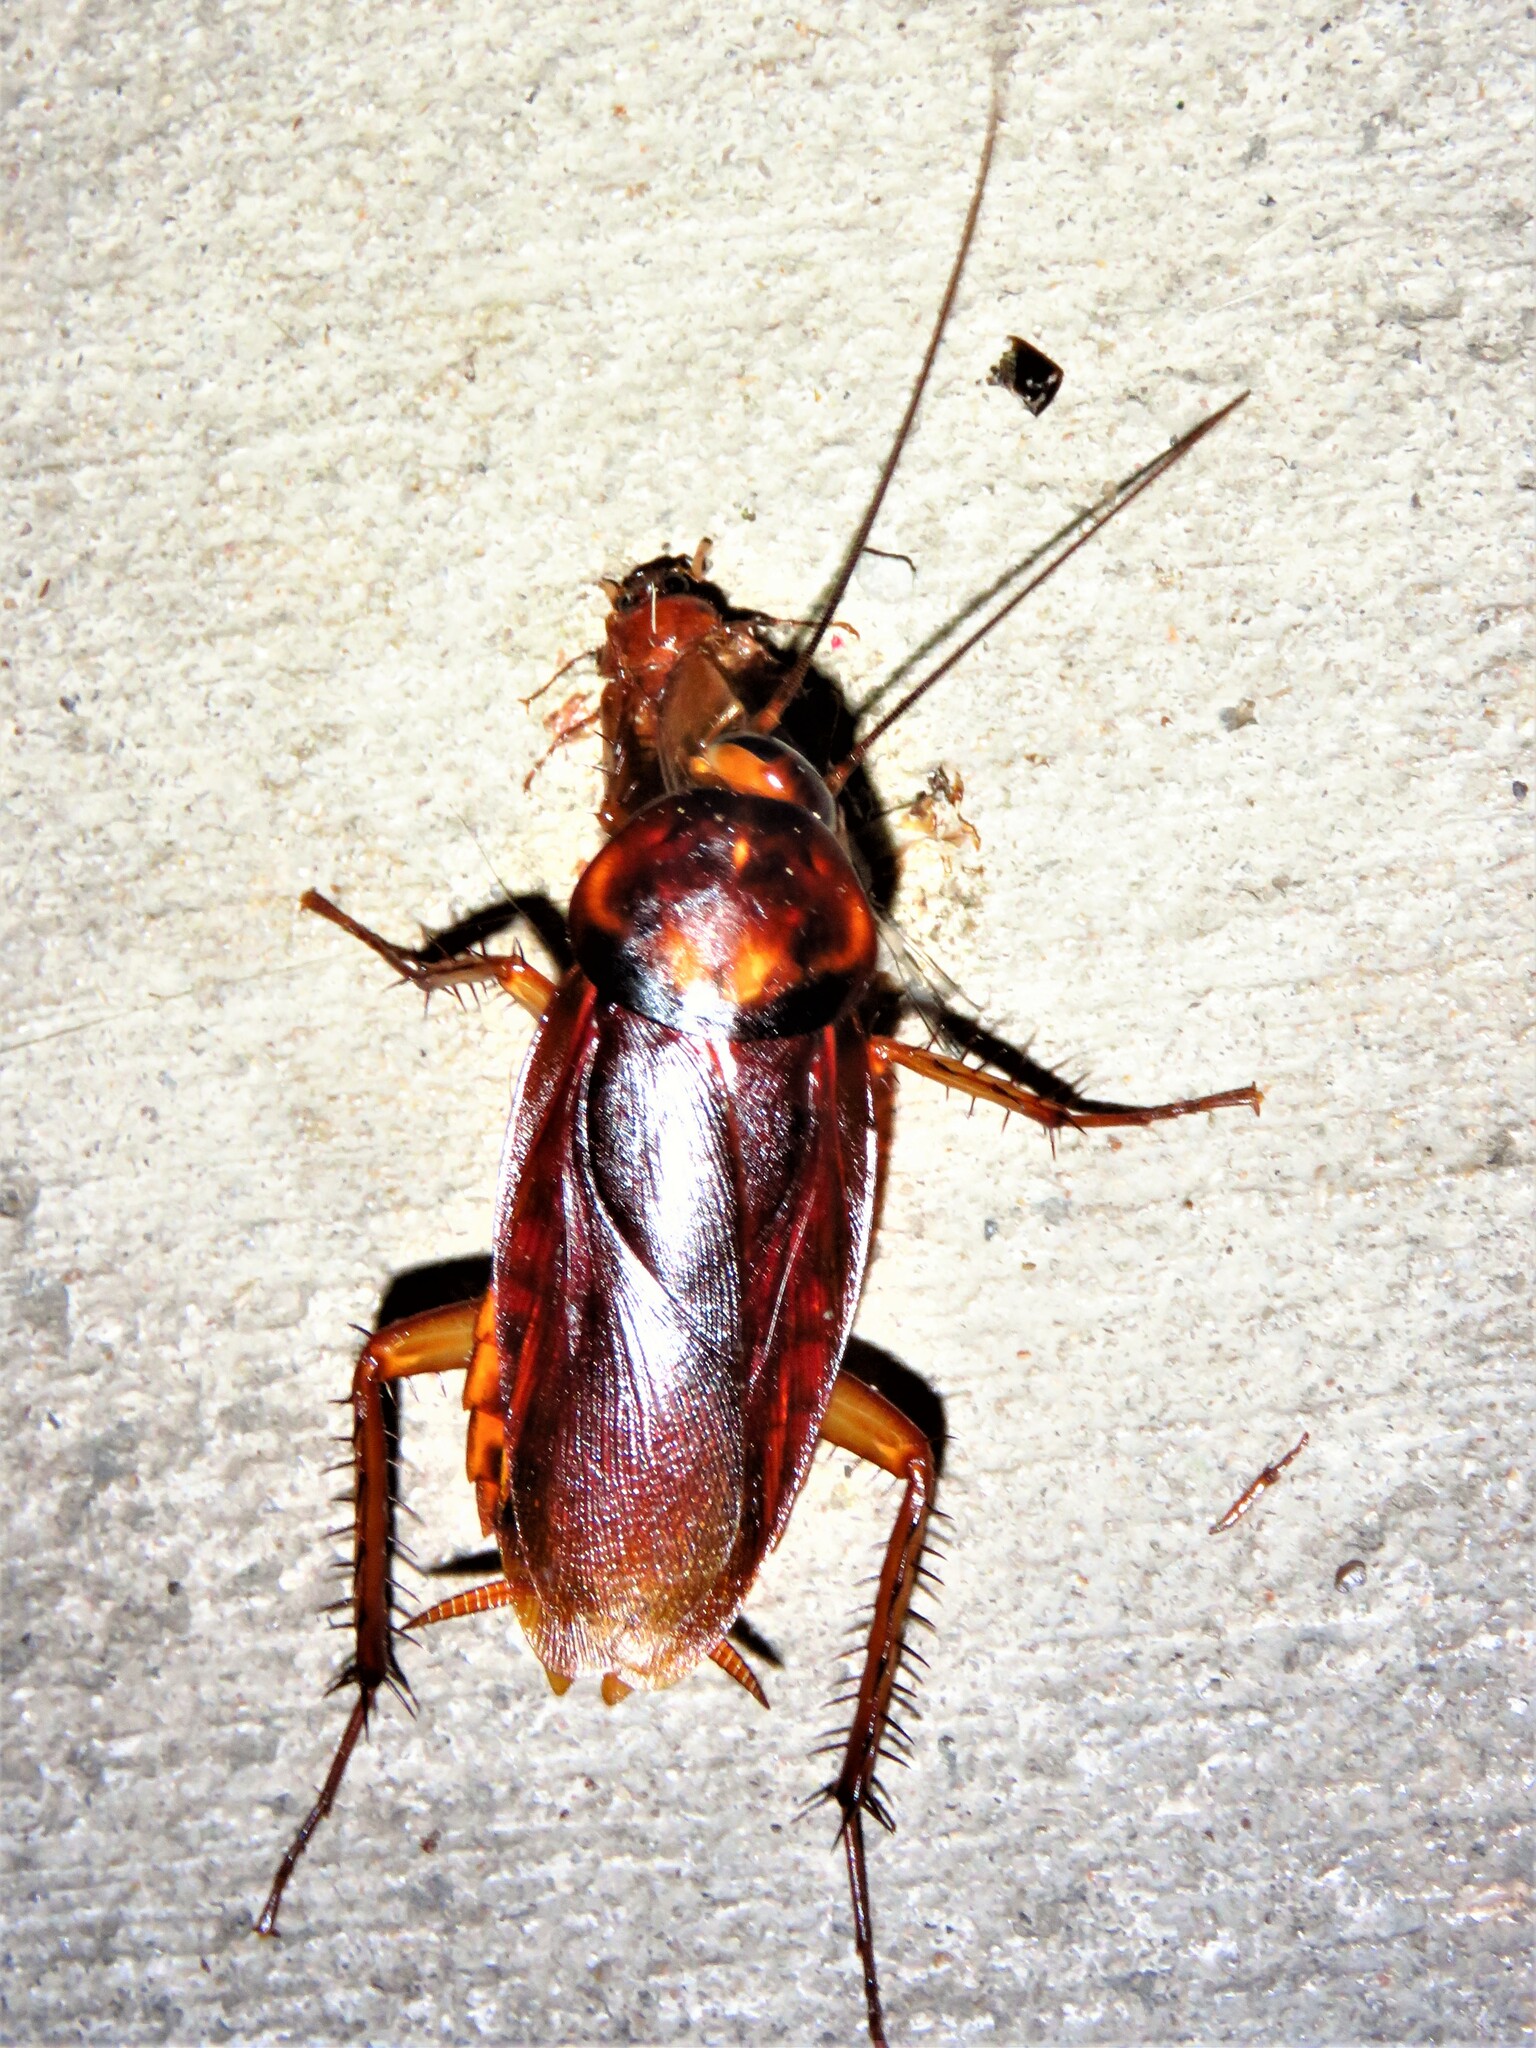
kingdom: Animalia
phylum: Arthropoda
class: Insecta
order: Blattodea
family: Blattidae
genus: Periplaneta
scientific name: Periplaneta americana
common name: American cockroach
